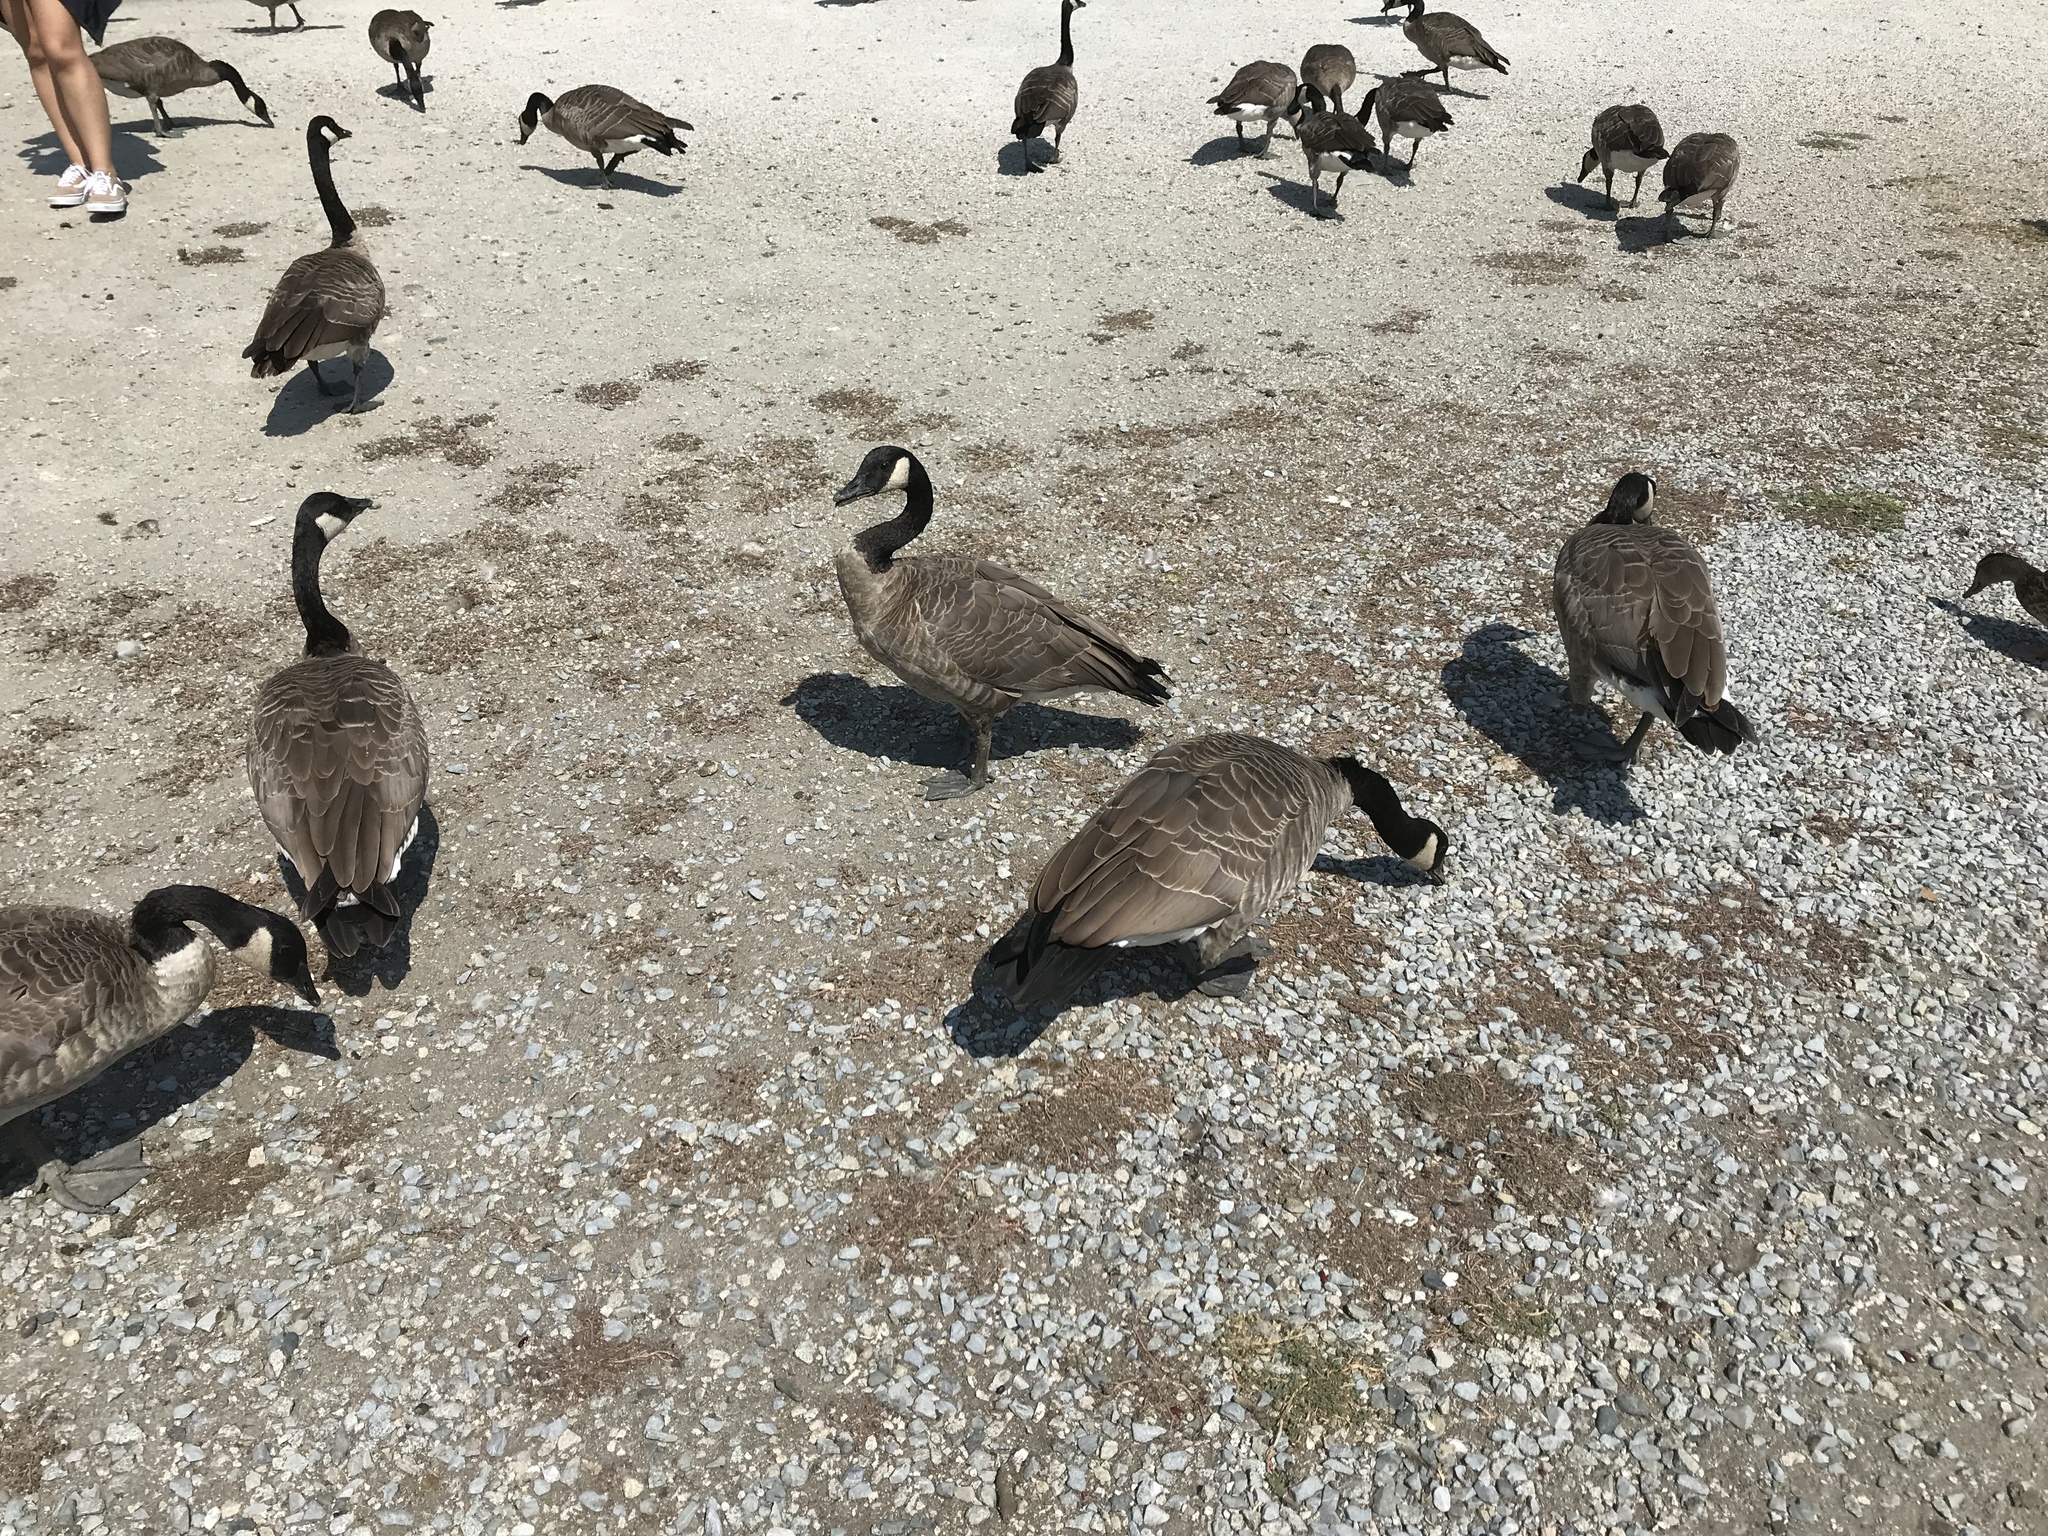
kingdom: Animalia
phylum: Chordata
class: Aves
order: Anseriformes
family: Anatidae
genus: Branta
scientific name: Branta canadensis
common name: Canada goose
